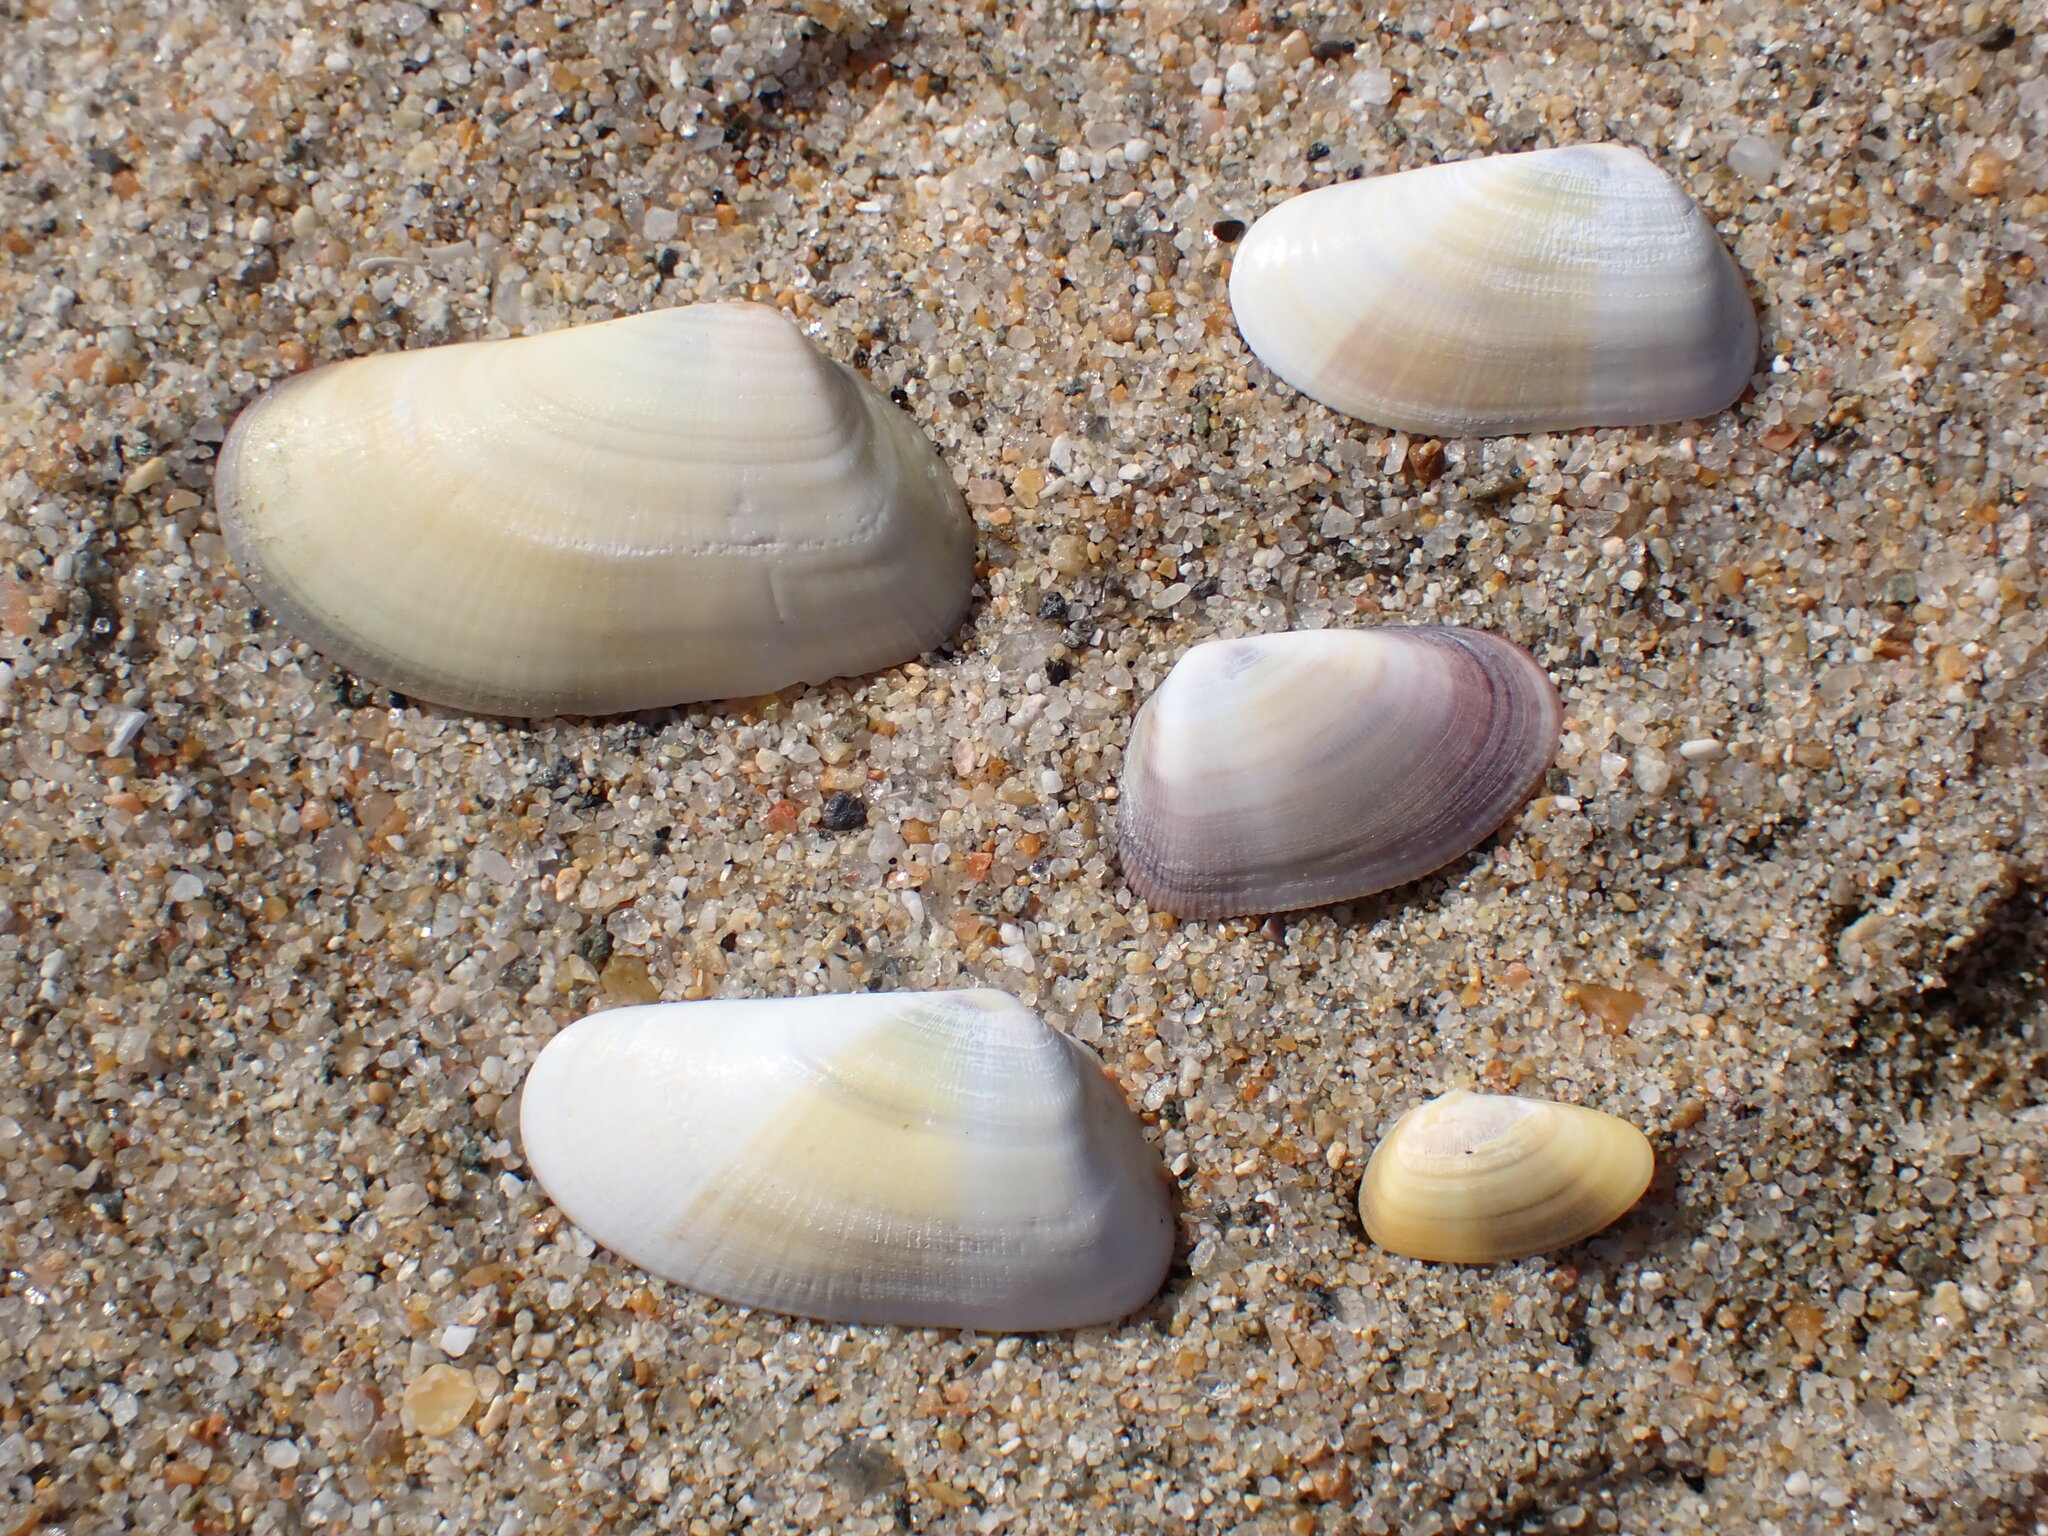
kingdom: Animalia
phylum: Mollusca
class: Bivalvia
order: Cardiida
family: Donacidae
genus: Donax
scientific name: Donax gouldii
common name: Gould beanclam
